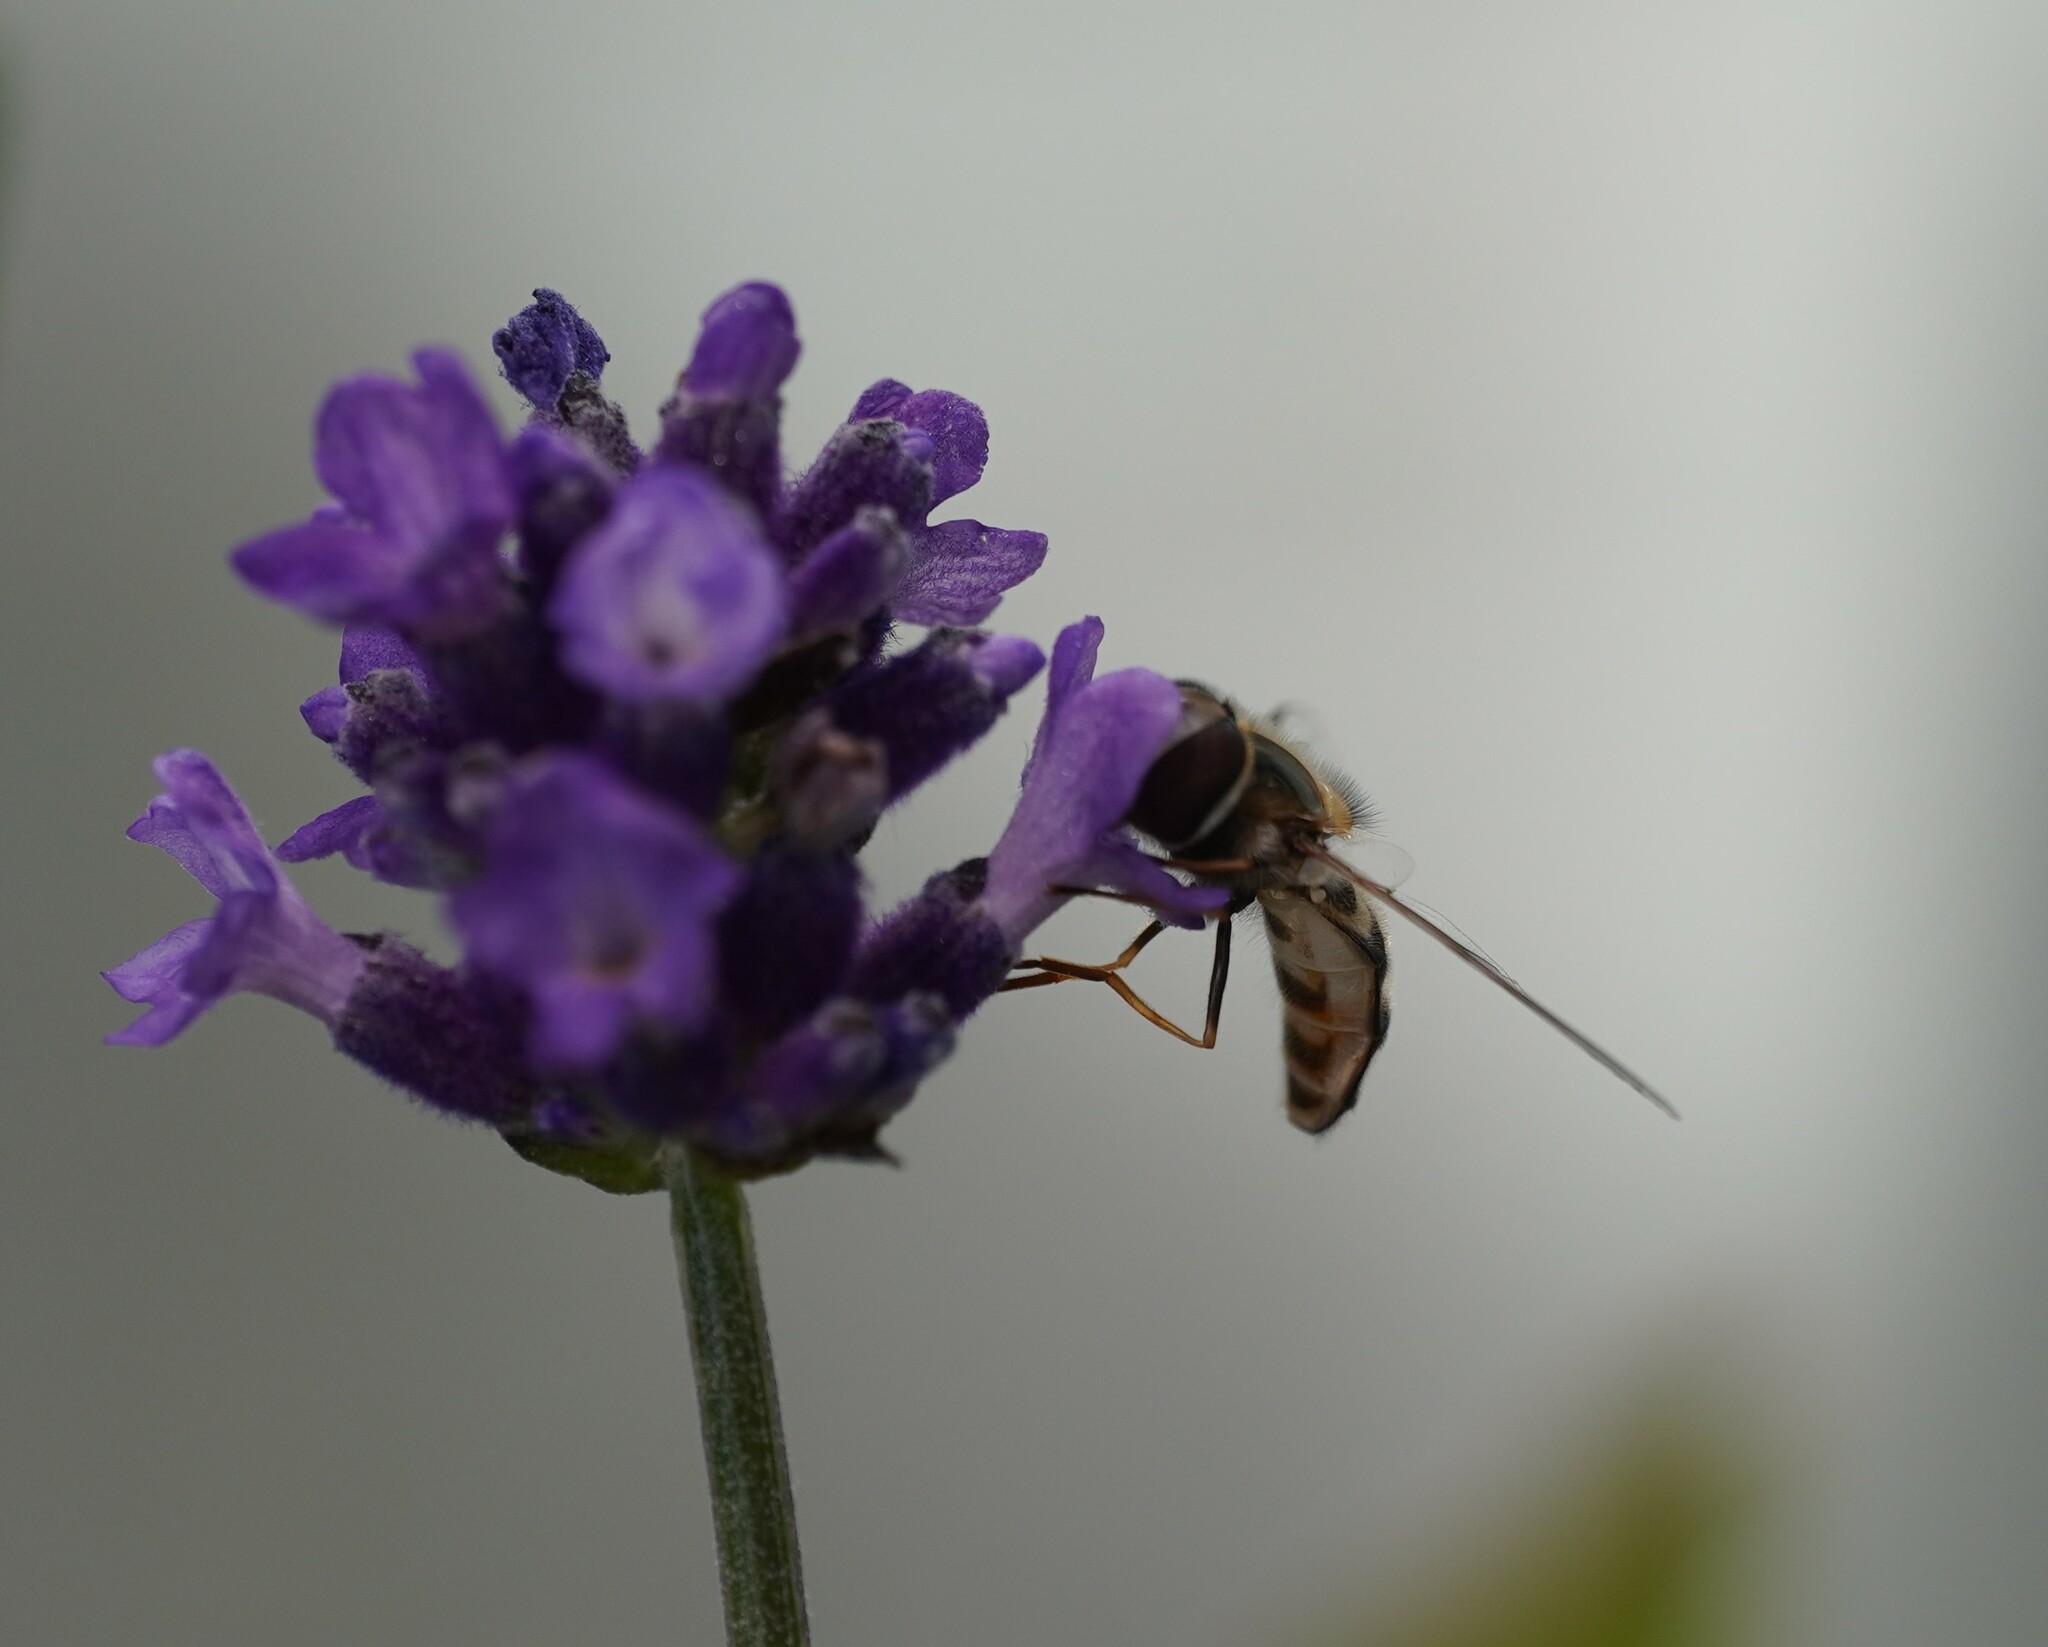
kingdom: Animalia
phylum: Arthropoda
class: Insecta
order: Diptera
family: Syrphidae
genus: Scaeva
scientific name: Scaeva pyrastri
